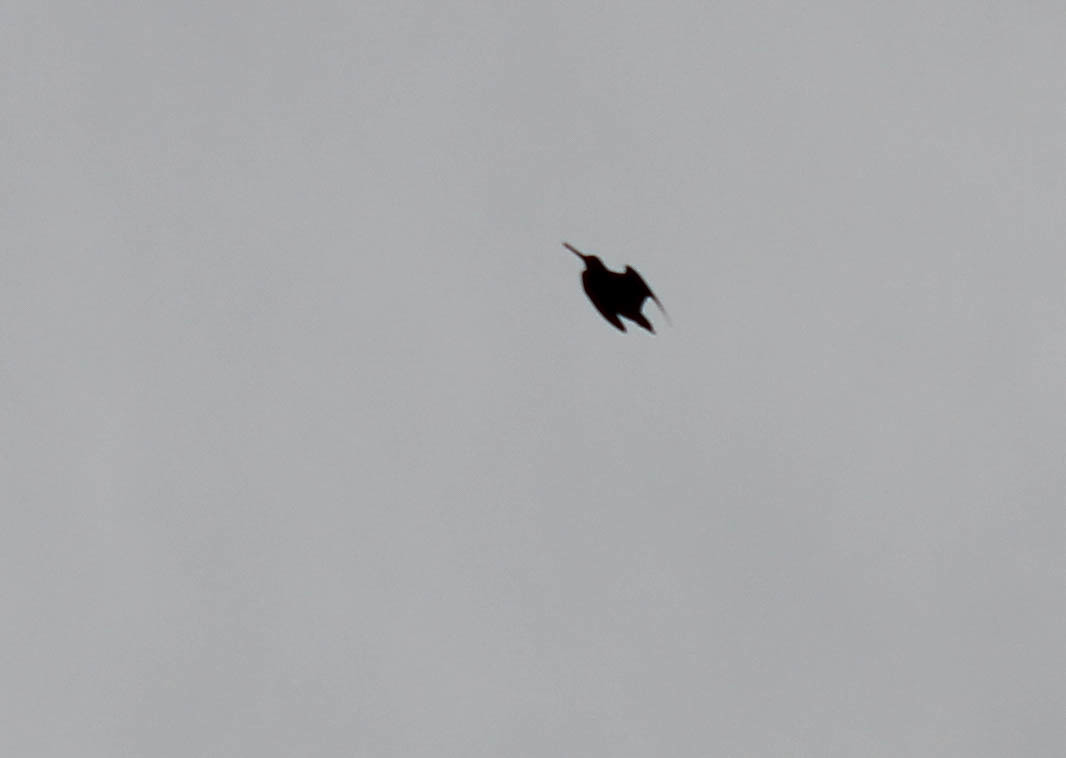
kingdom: Animalia
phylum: Chordata
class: Aves
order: Charadriiformes
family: Scolopacidae
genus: Gallinago
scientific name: Gallinago delicata
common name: Wilson's snipe
